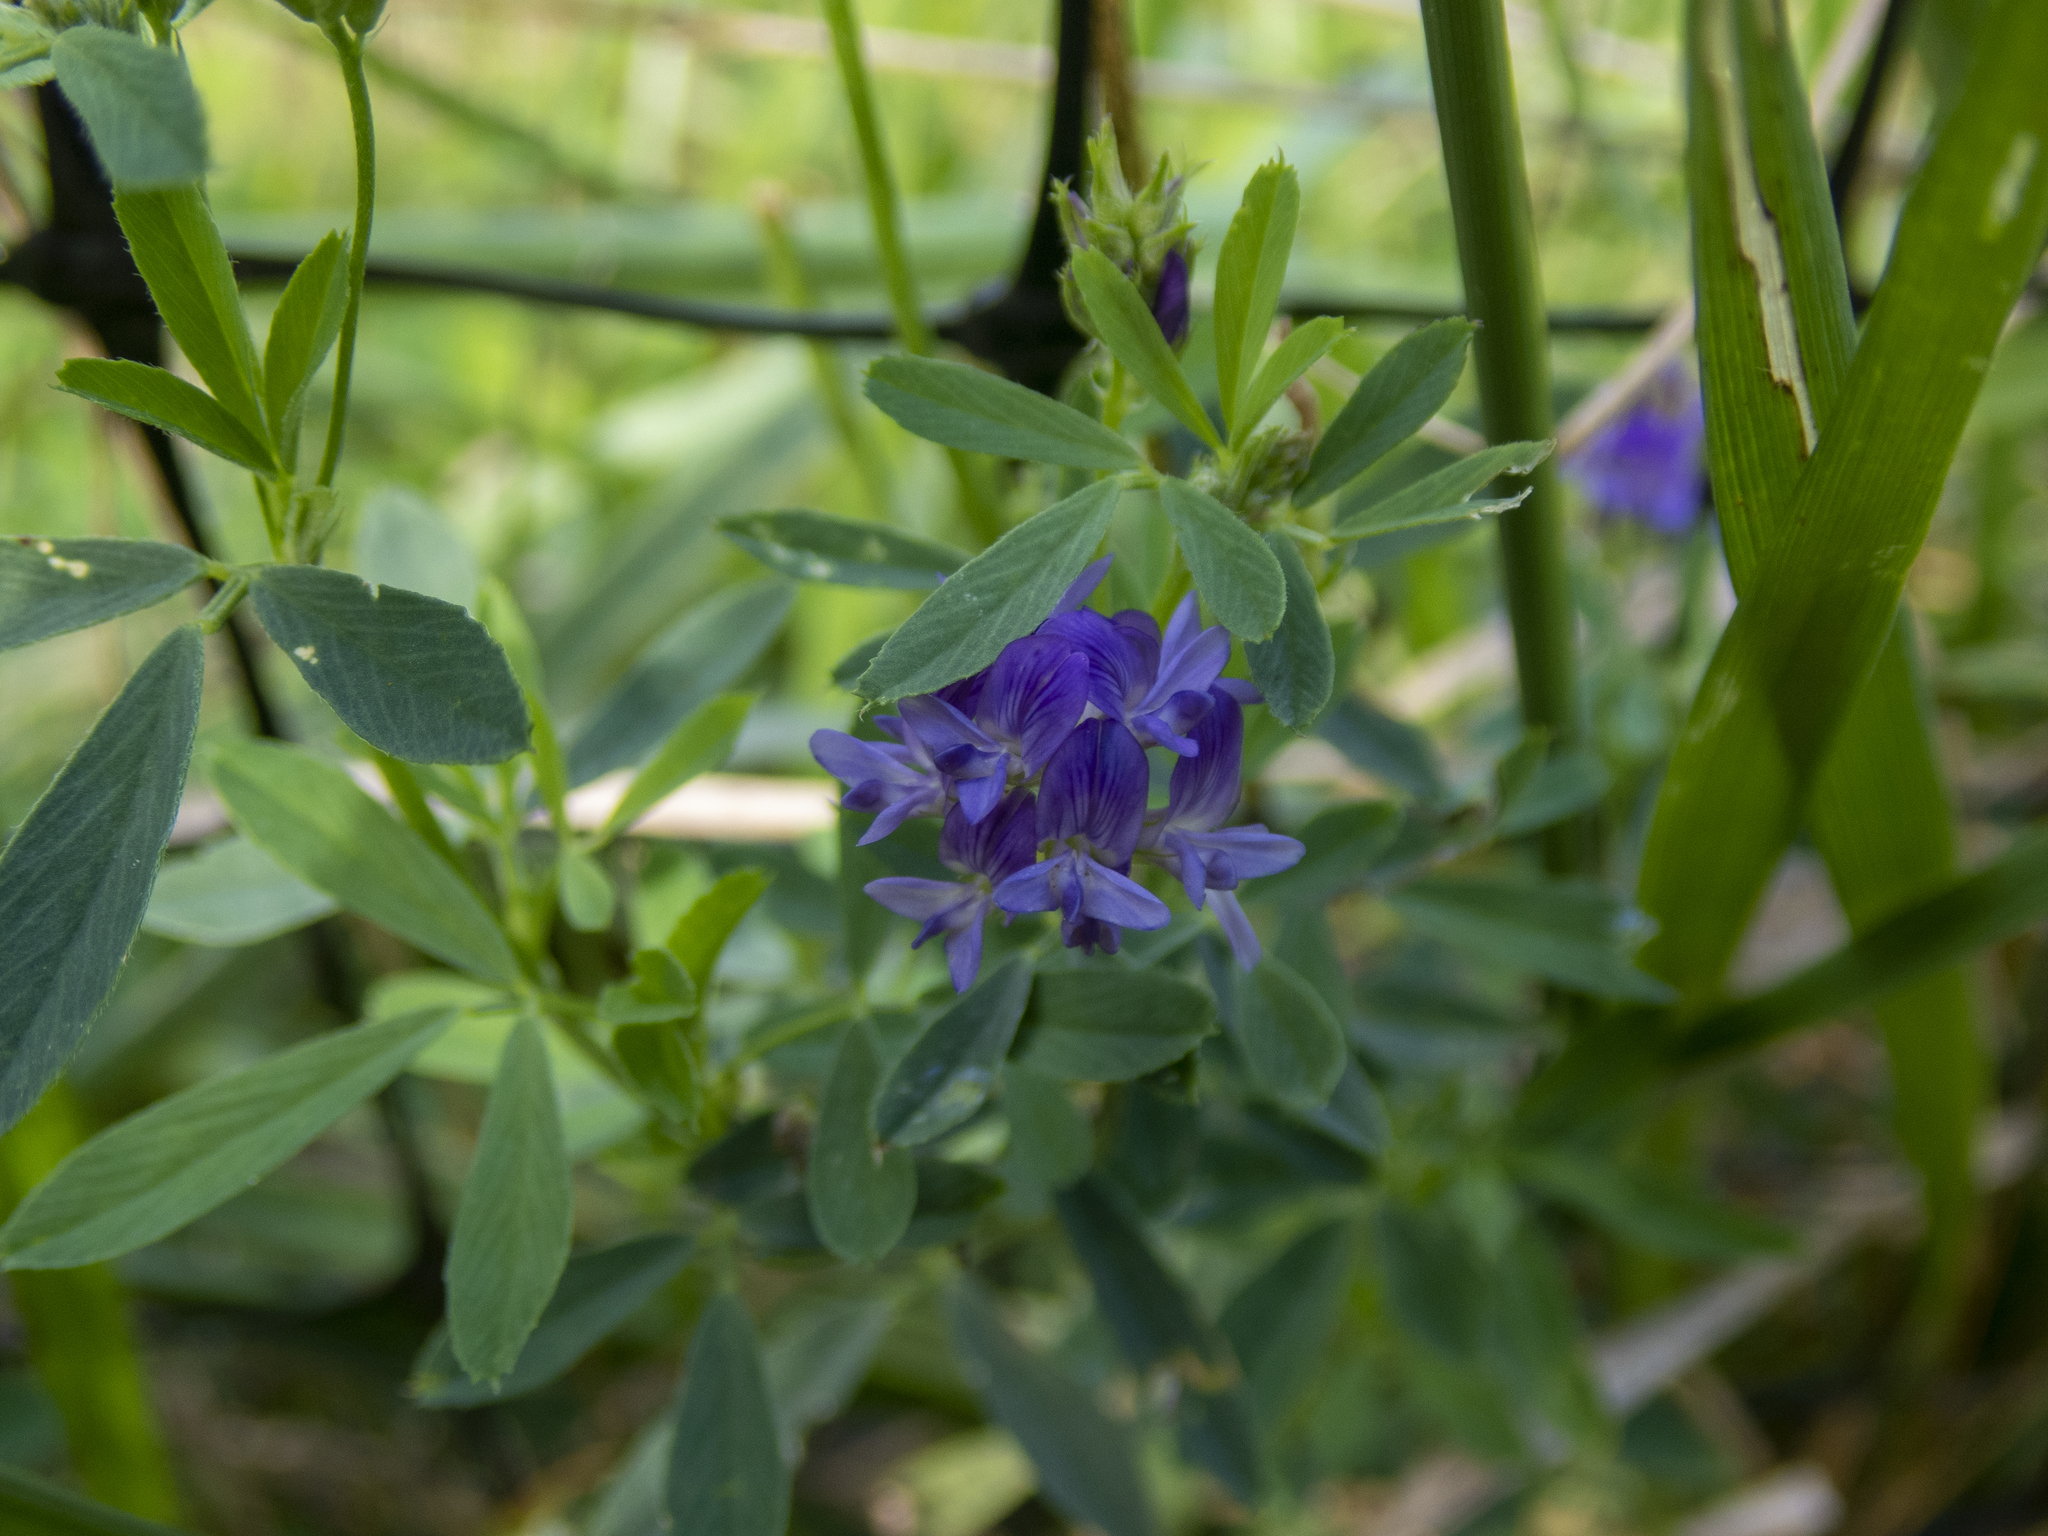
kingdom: Plantae
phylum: Tracheophyta
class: Magnoliopsida
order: Fabales
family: Fabaceae
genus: Medicago
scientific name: Medicago sativa
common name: Alfalfa
